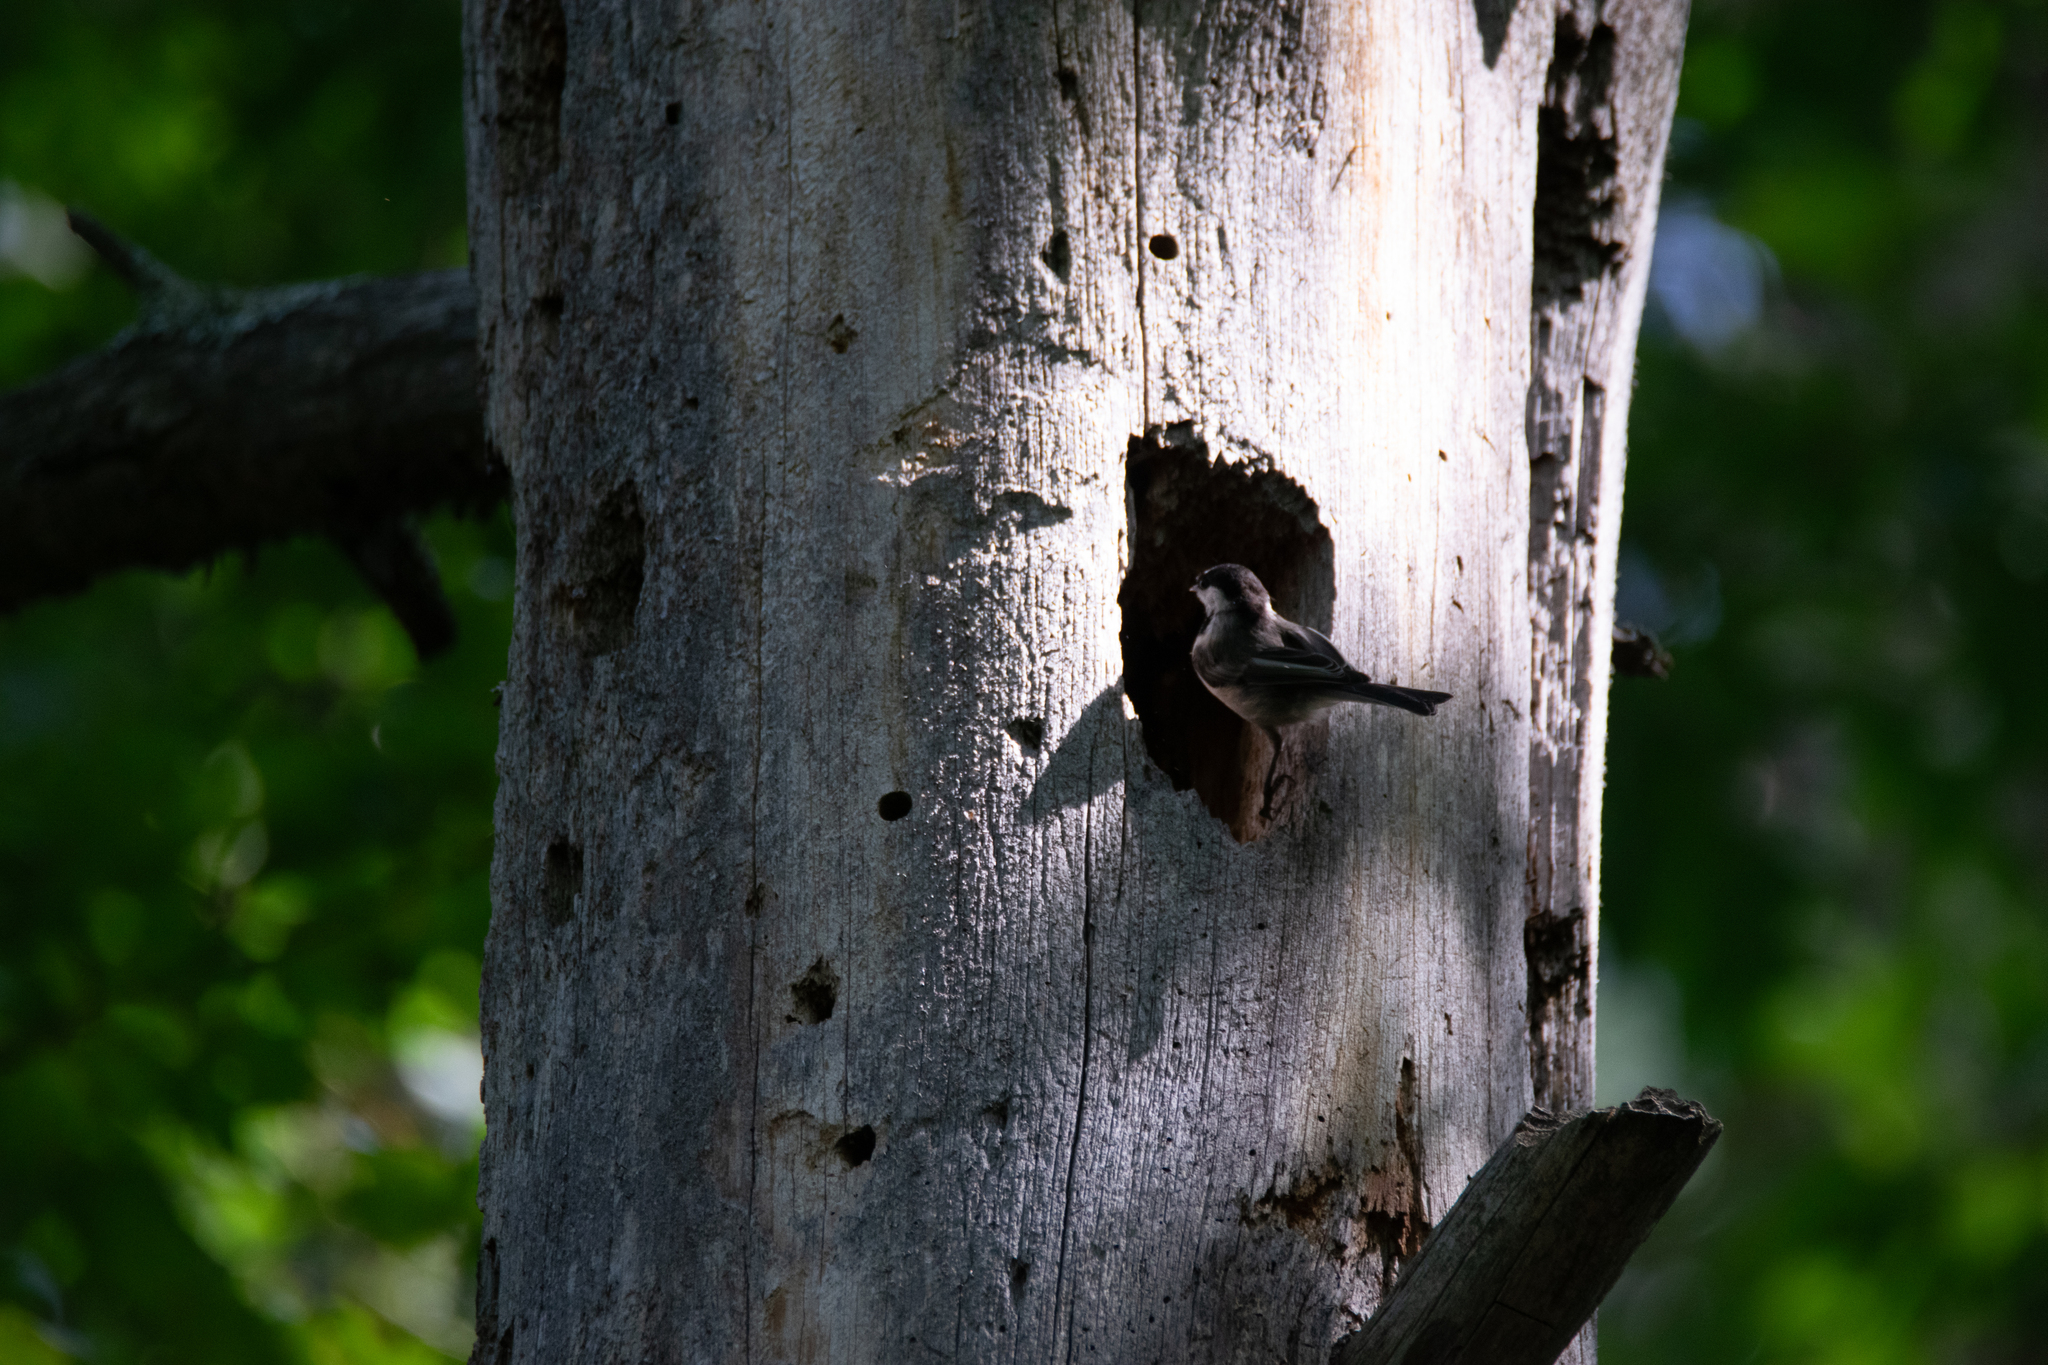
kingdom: Animalia
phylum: Chordata
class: Aves
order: Passeriformes
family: Paridae
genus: Poecile
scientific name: Poecile atricapillus
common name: Black-capped chickadee
